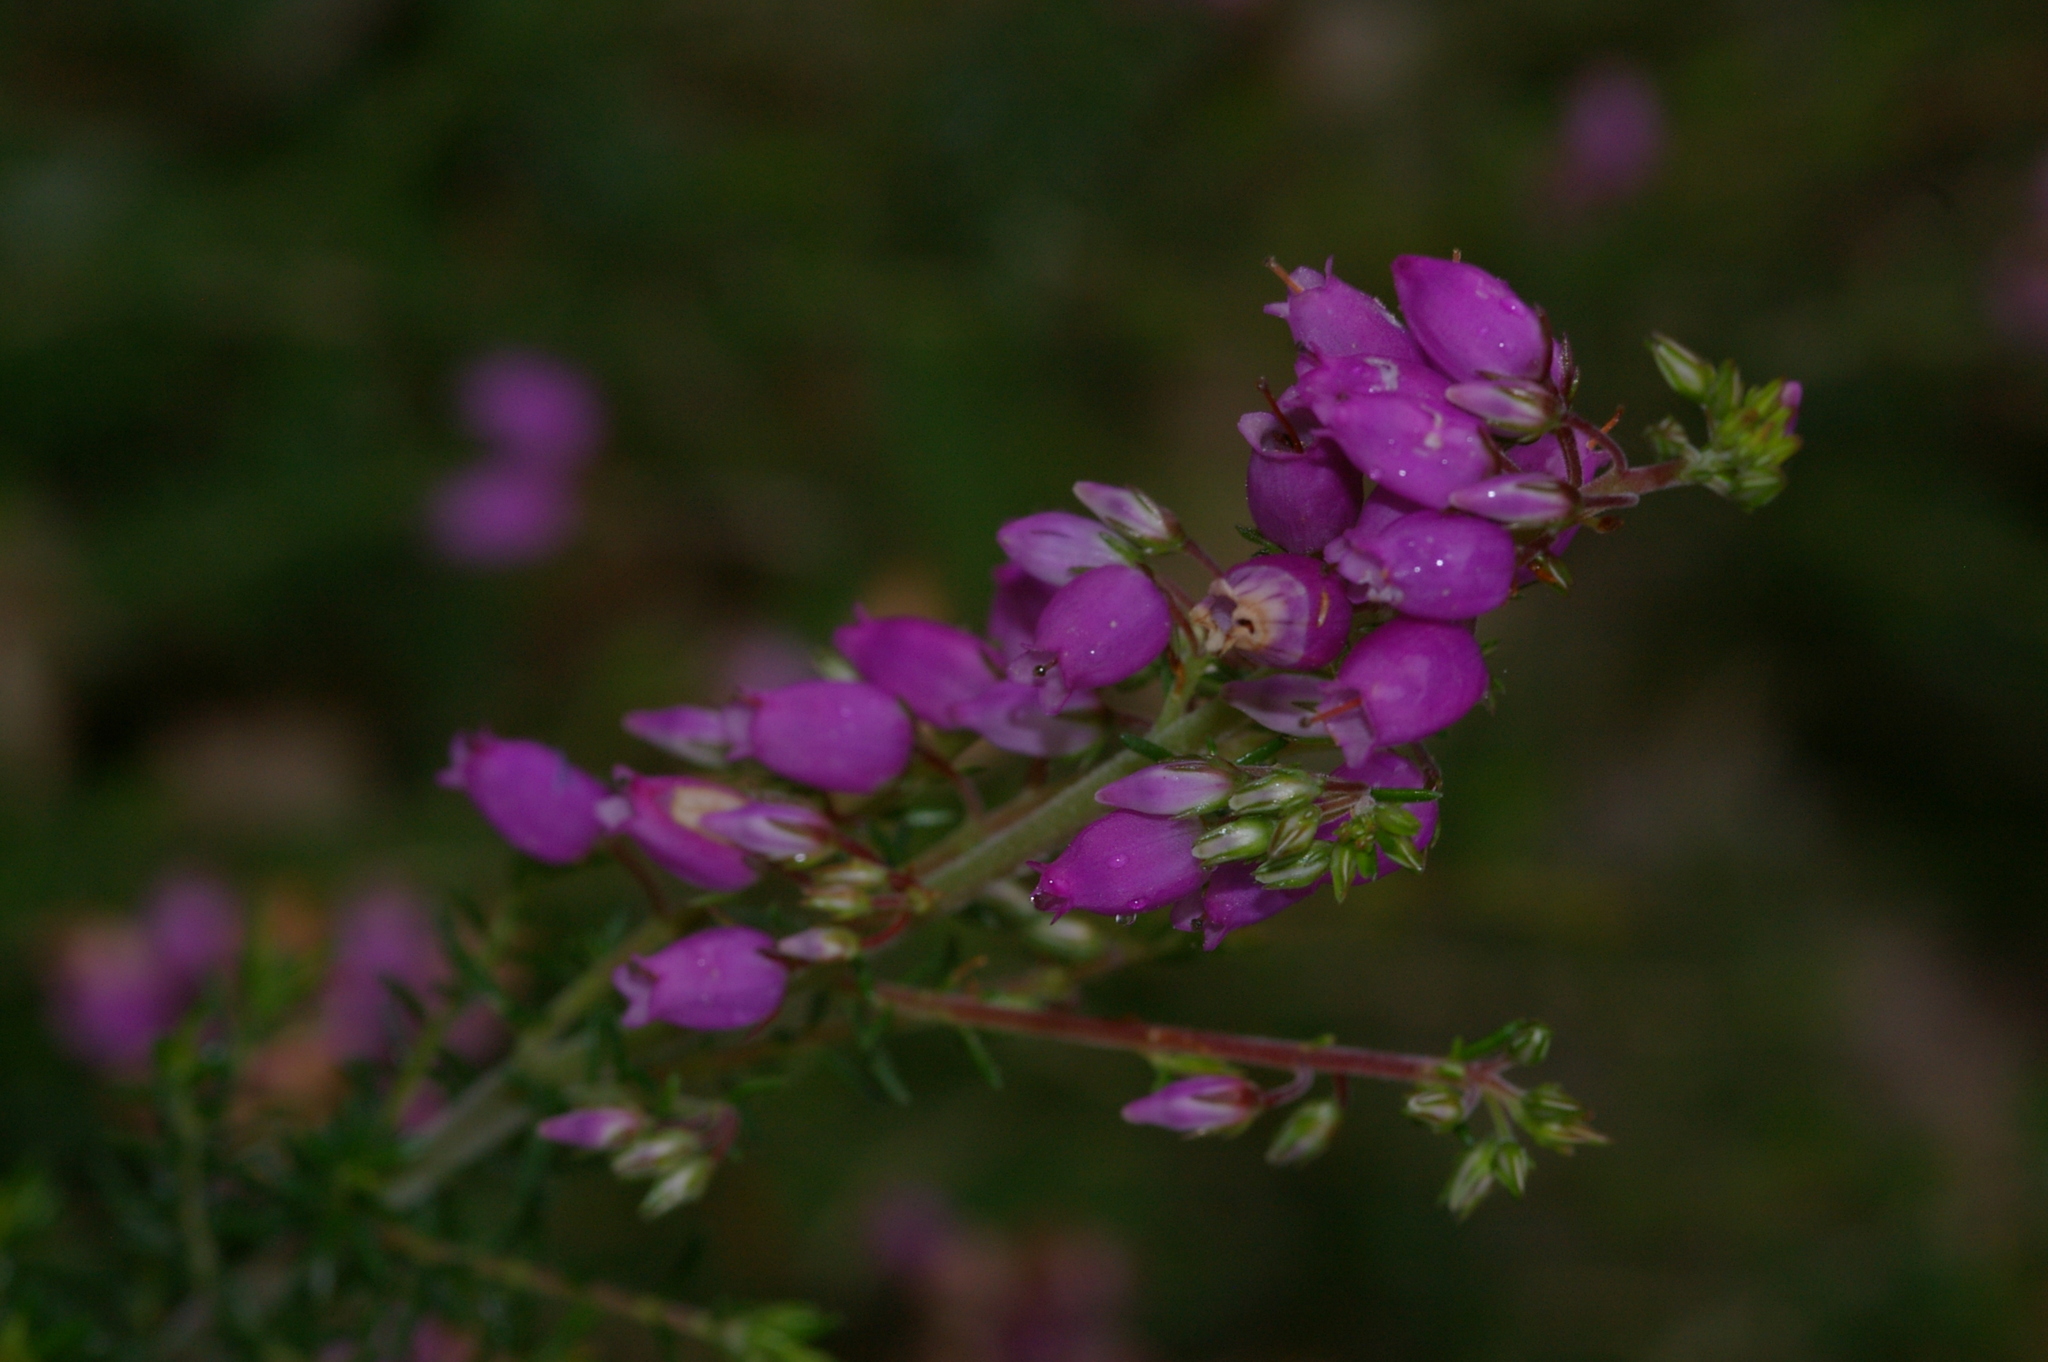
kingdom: Plantae
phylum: Tracheophyta
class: Magnoliopsida
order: Ericales
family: Ericaceae
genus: Erica
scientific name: Erica cinerea
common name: Bell heather
